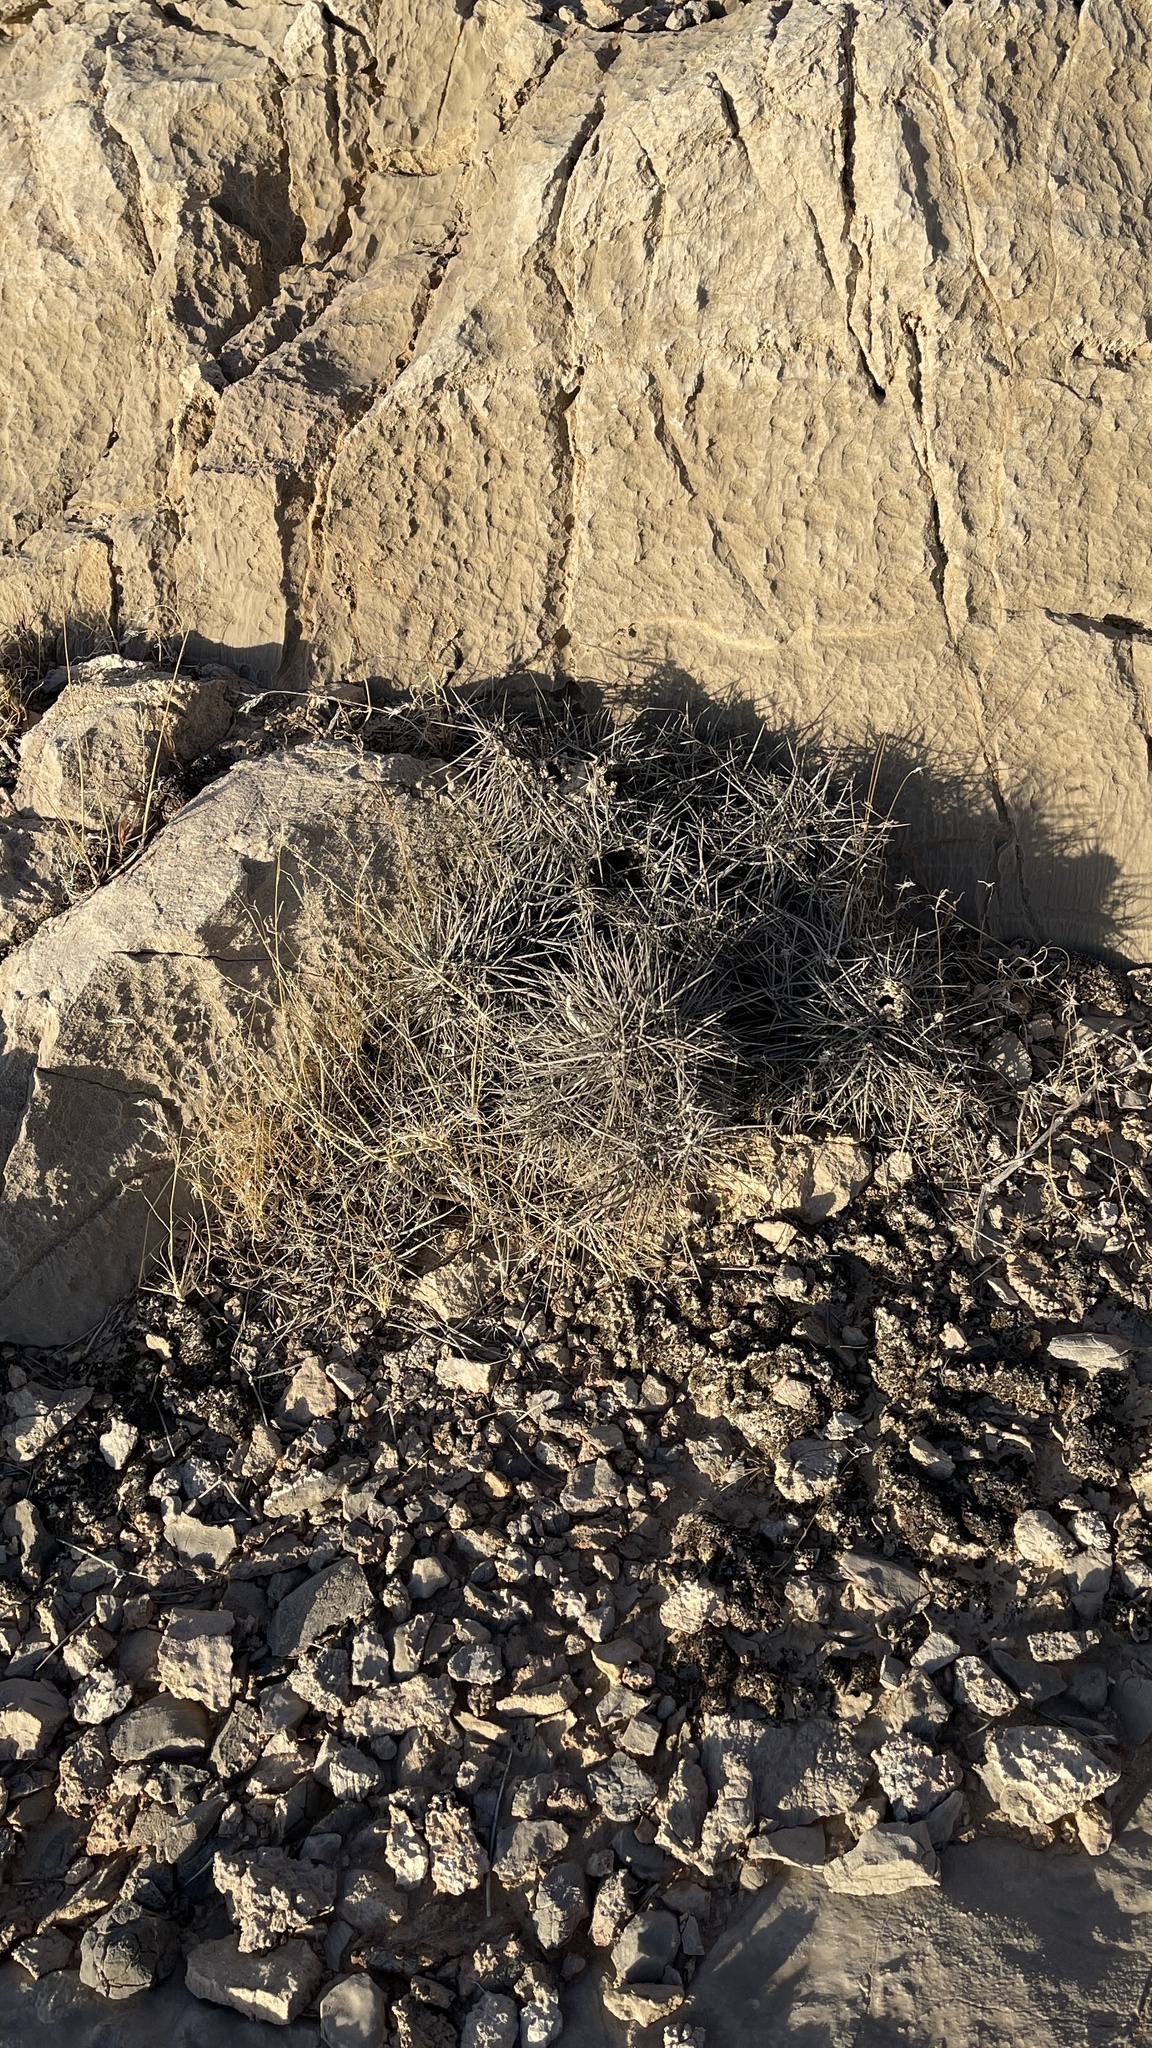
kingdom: Plantae
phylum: Tracheophyta
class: Magnoliopsida
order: Caryophyllales
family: Cactaceae
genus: Echinocereus
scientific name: Echinocereus engelmannii
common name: Engelmann's hedgehog cactus
